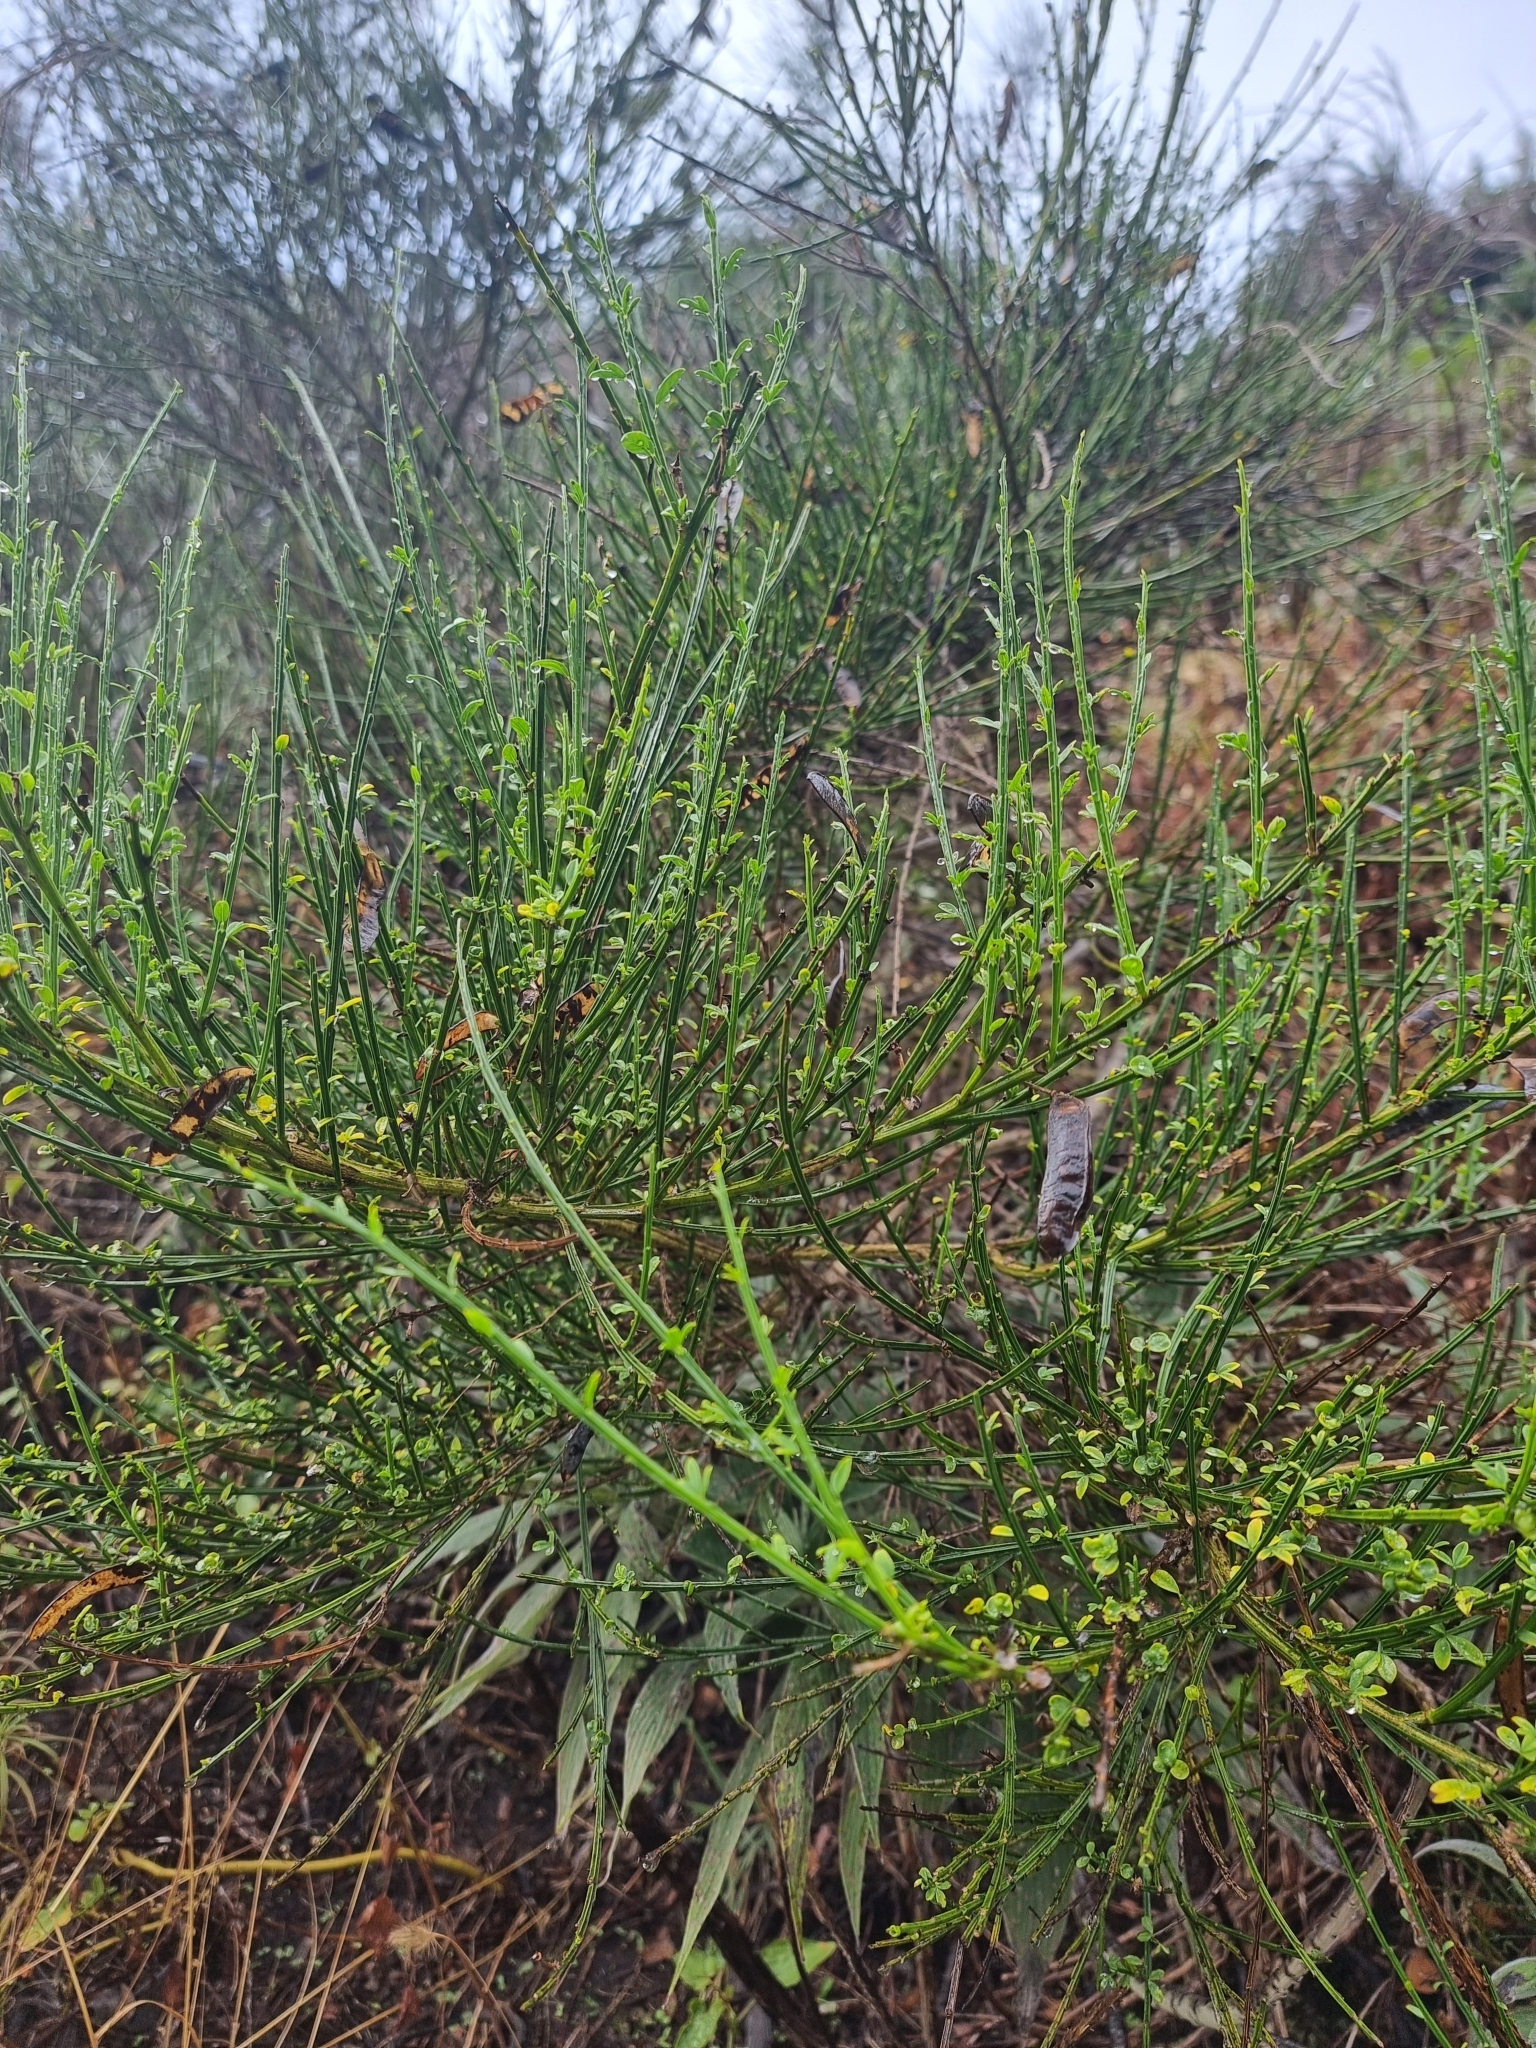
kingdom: Plantae
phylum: Tracheophyta
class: Magnoliopsida
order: Fabales
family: Fabaceae
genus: Cytisus
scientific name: Cytisus scoparius
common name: Scotch broom
